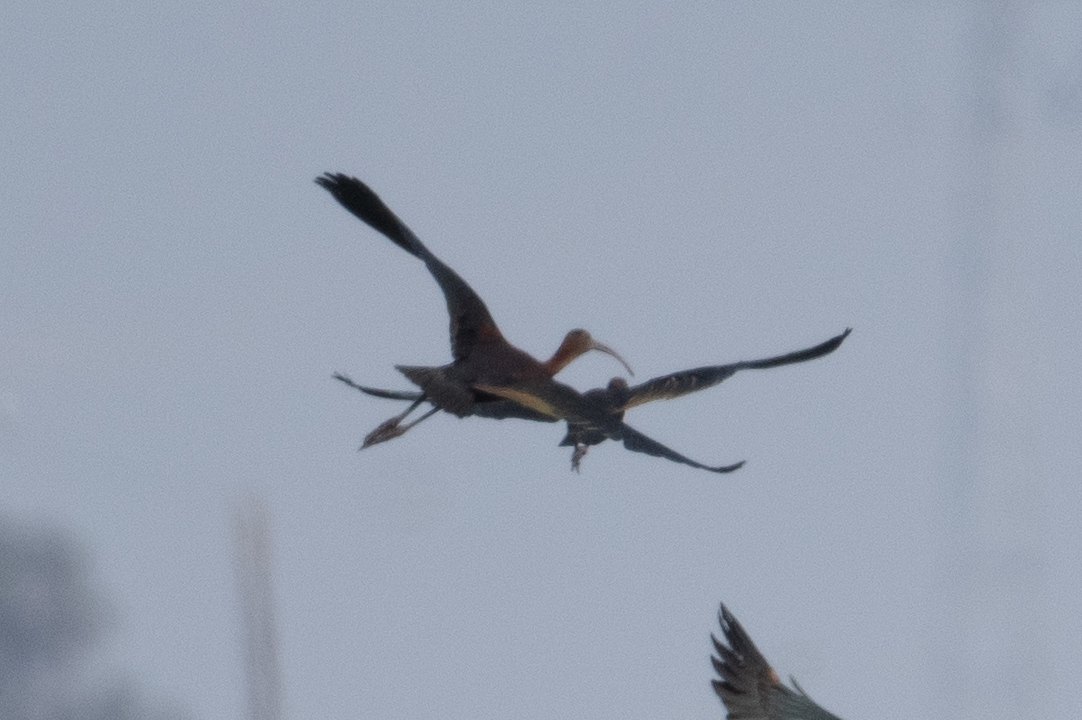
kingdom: Animalia
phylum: Chordata
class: Aves
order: Pelecaniformes
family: Threskiornithidae
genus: Plegadis
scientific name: Plegadis chihi
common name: White-faced ibis
